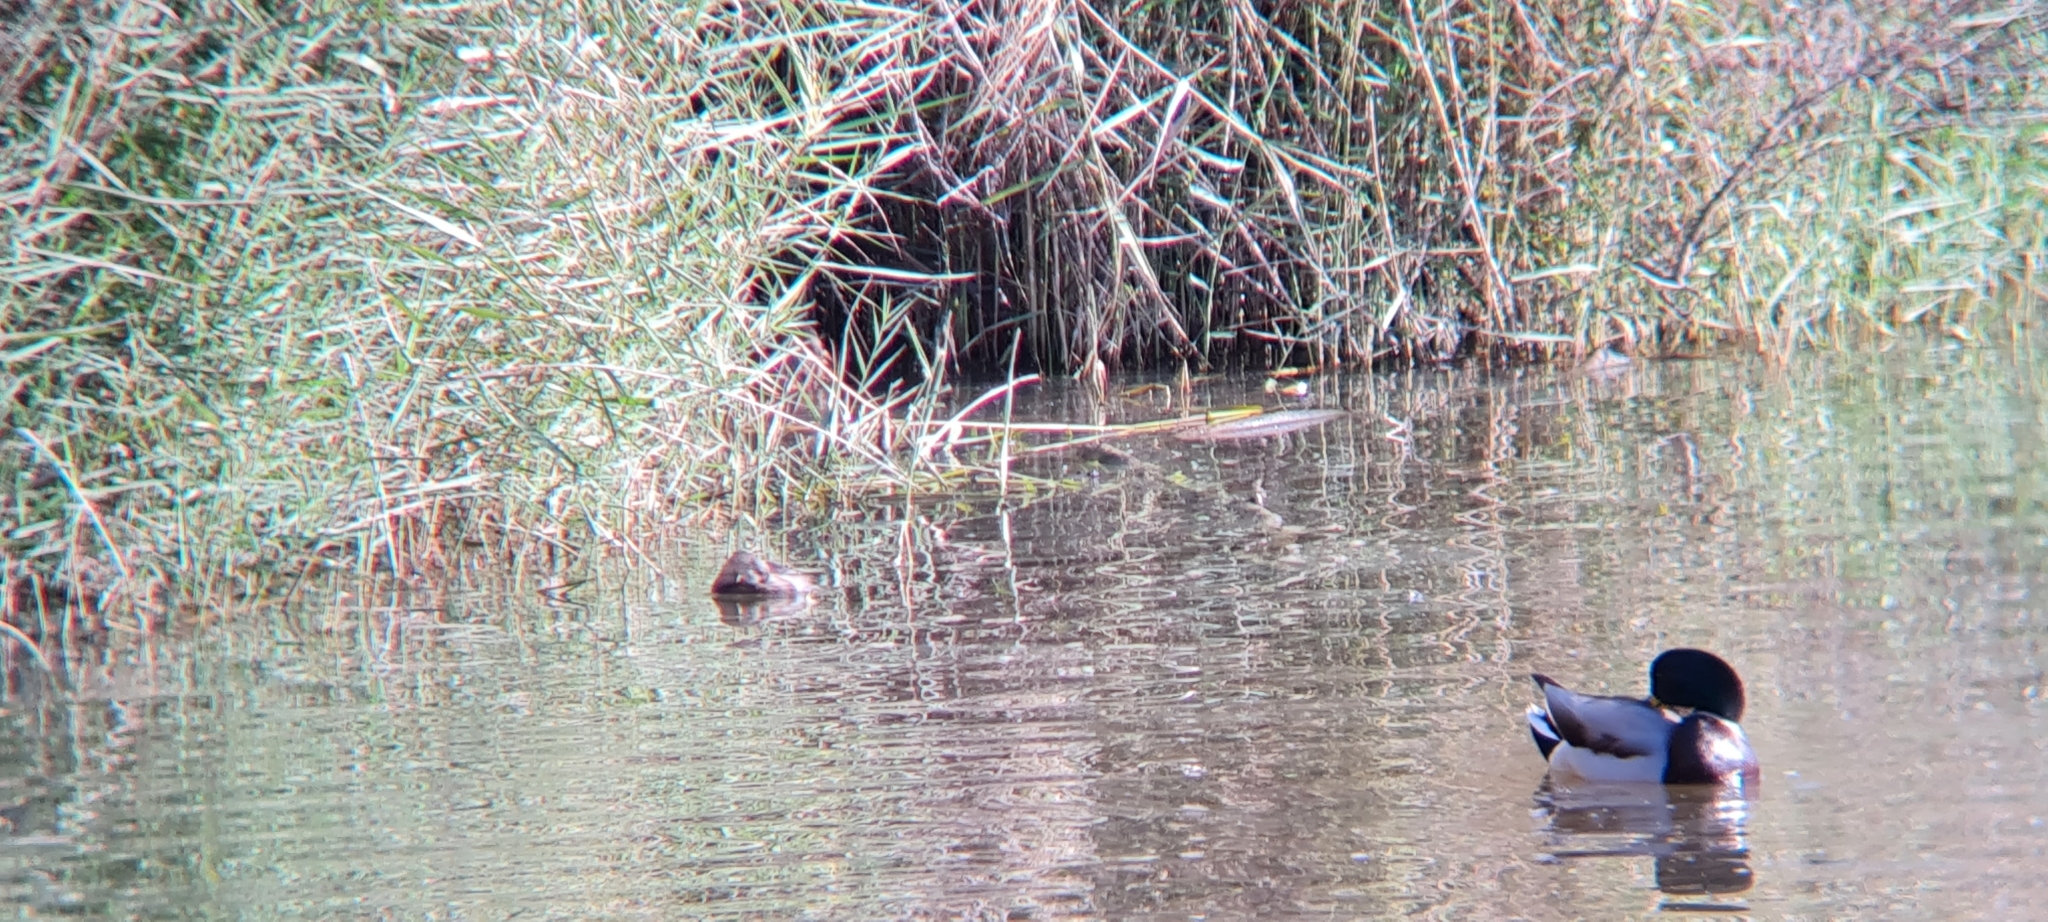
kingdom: Animalia
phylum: Chordata
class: Aves
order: Podicipediformes
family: Podicipedidae
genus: Tachybaptus
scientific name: Tachybaptus ruficollis
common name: Little grebe
